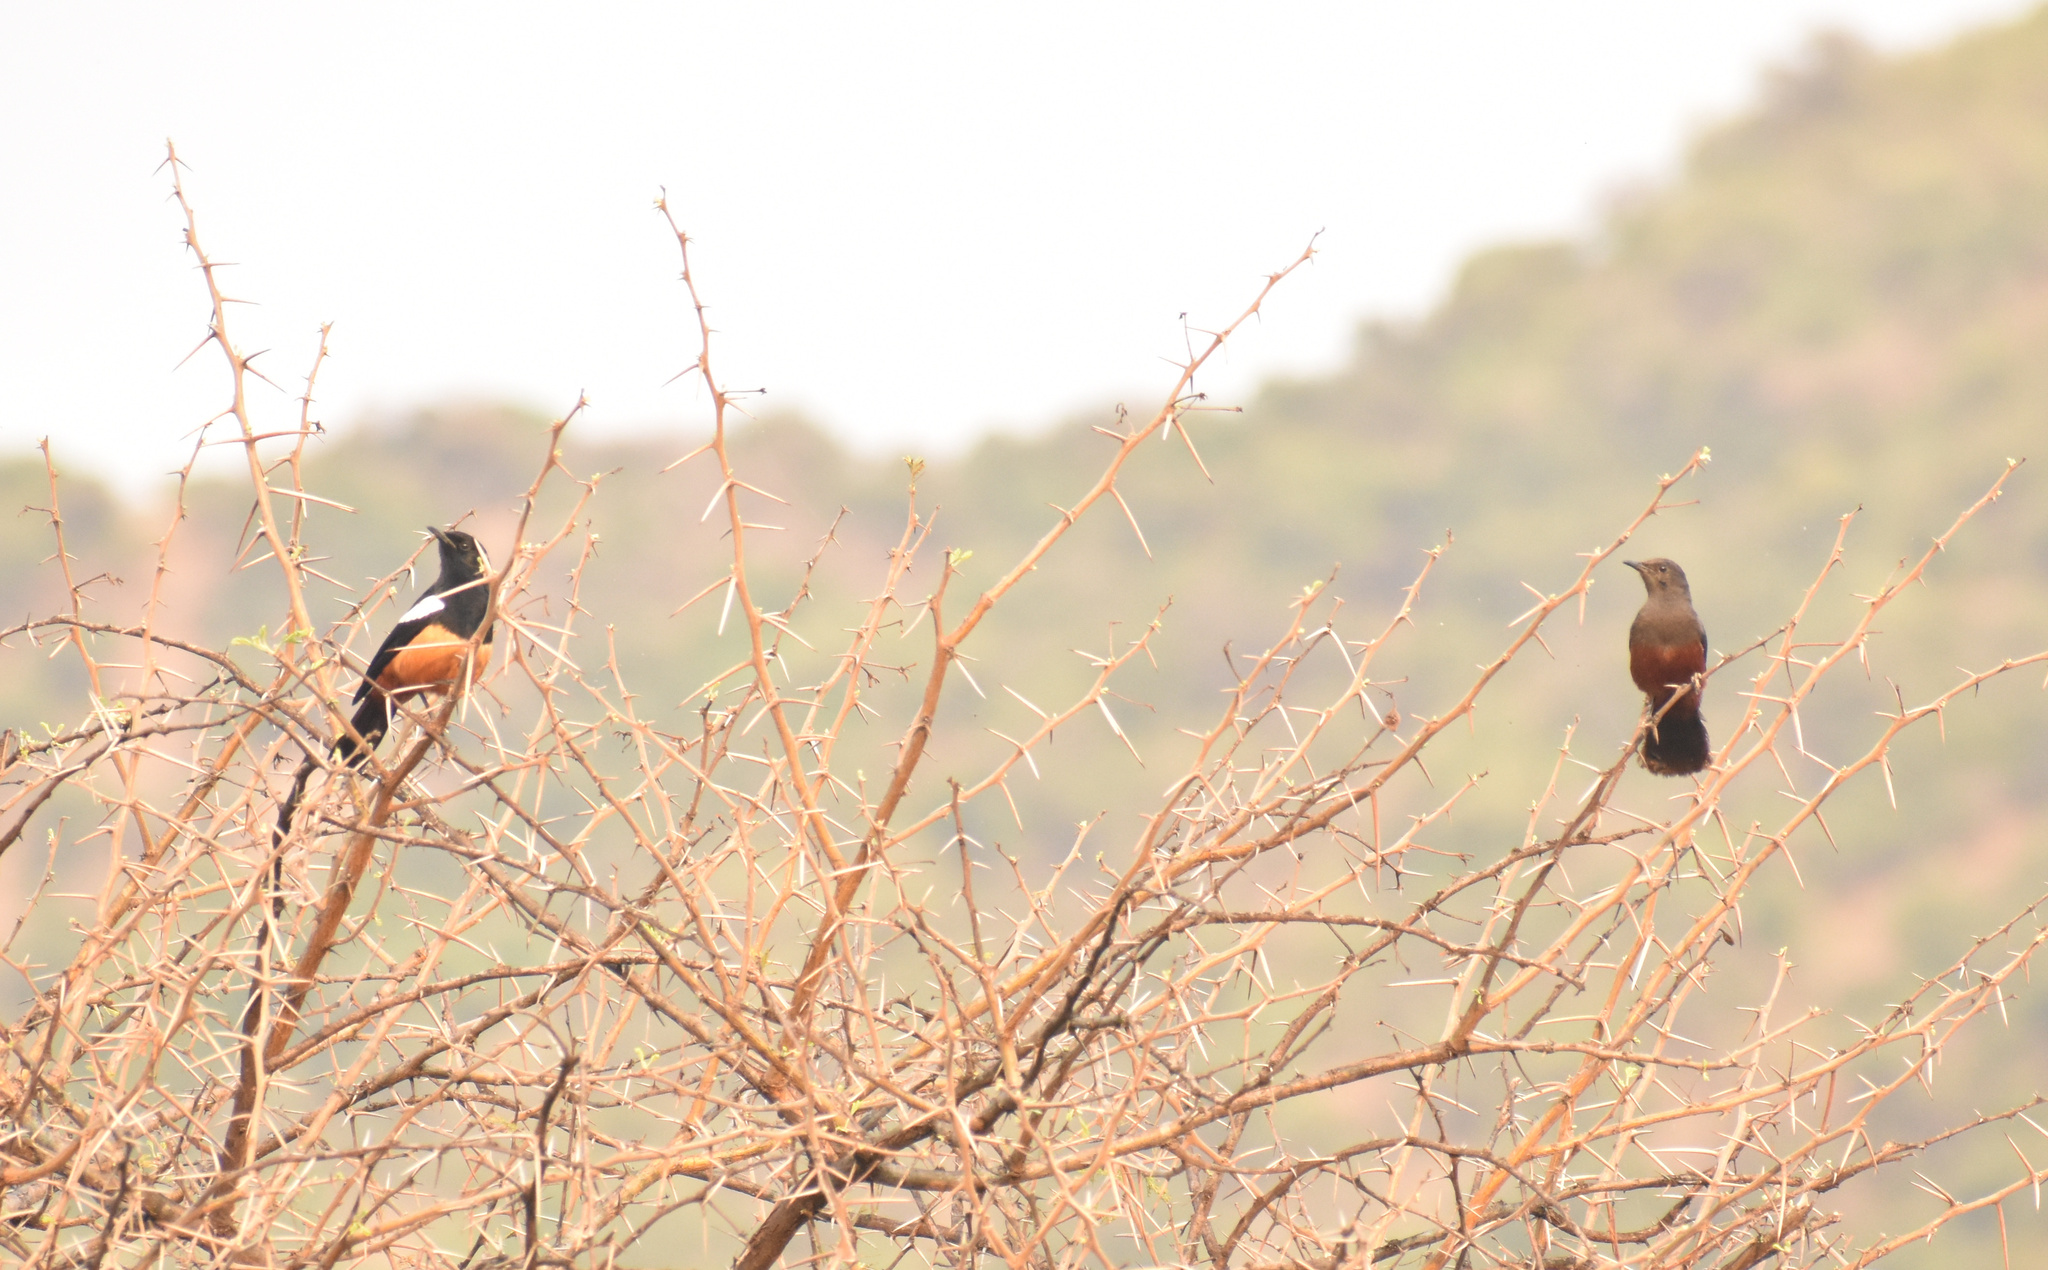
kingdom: Animalia
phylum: Chordata
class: Aves
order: Passeriformes
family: Muscicapidae
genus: Thamnolaea
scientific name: Thamnolaea cinnamomeiventris
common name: Mocking cliff chat
